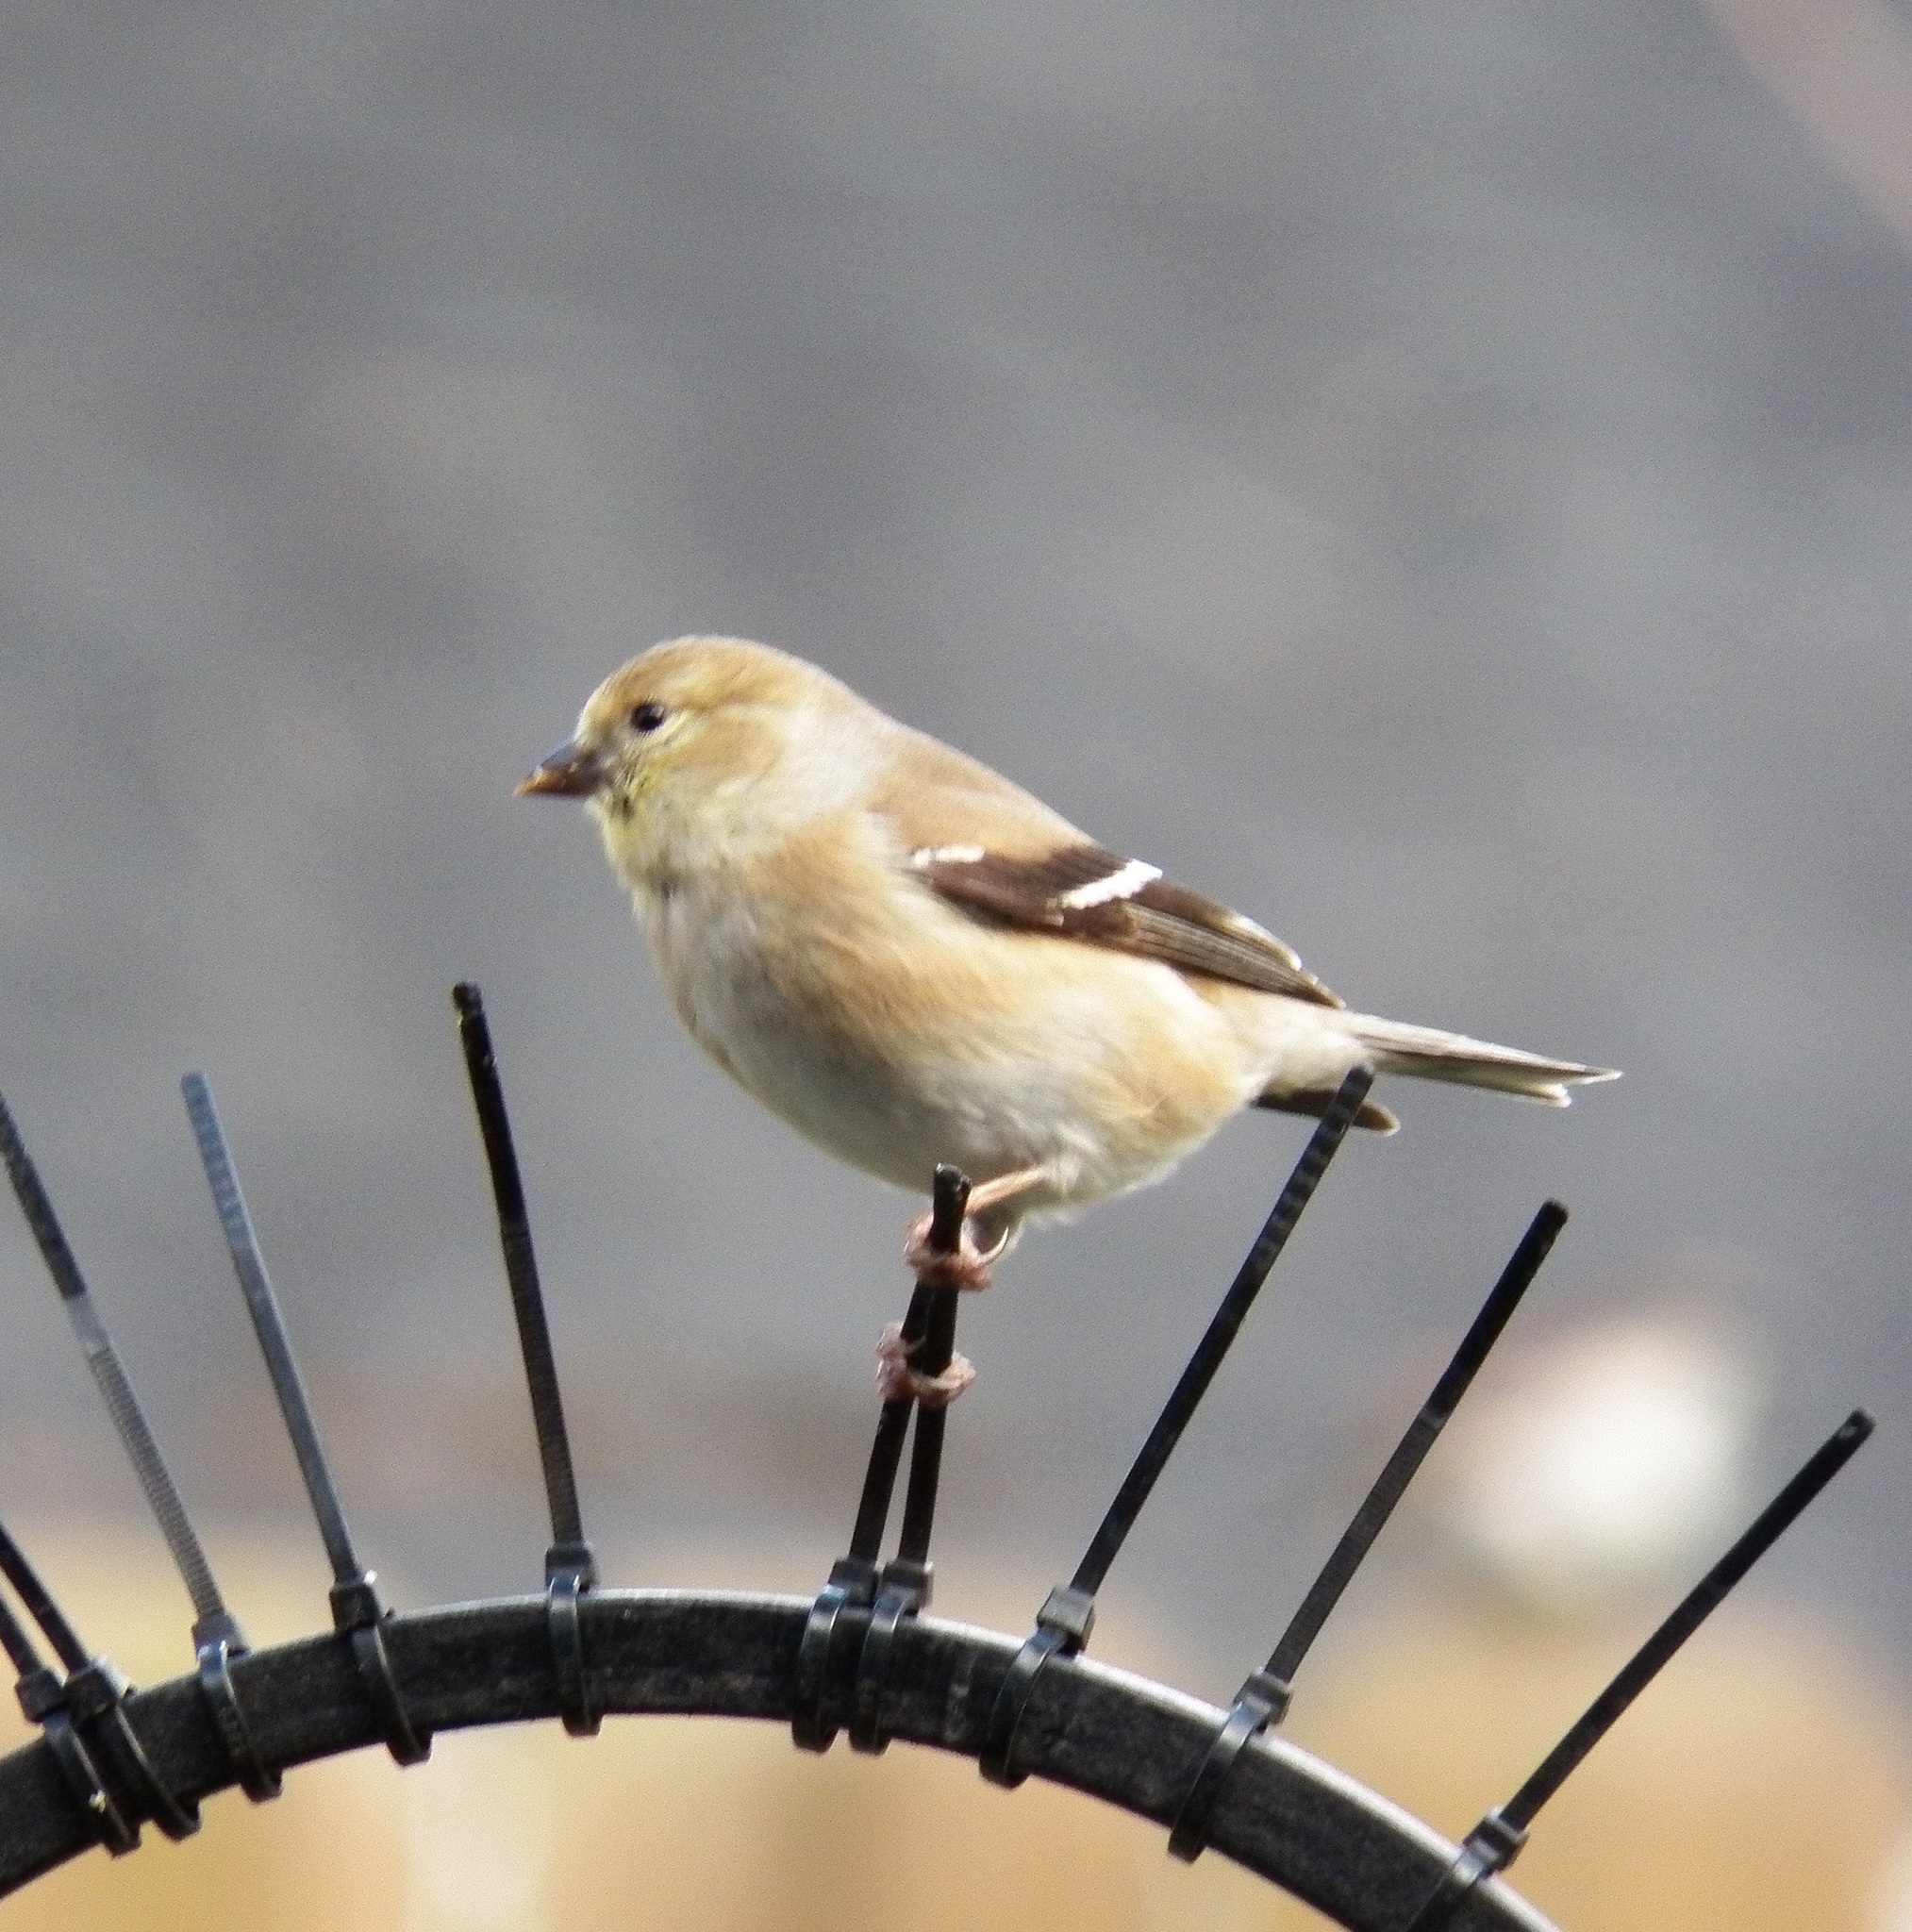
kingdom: Animalia
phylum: Chordata
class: Aves
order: Passeriformes
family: Fringillidae
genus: Spinus
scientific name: Spinus tristis
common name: American goldfinch
